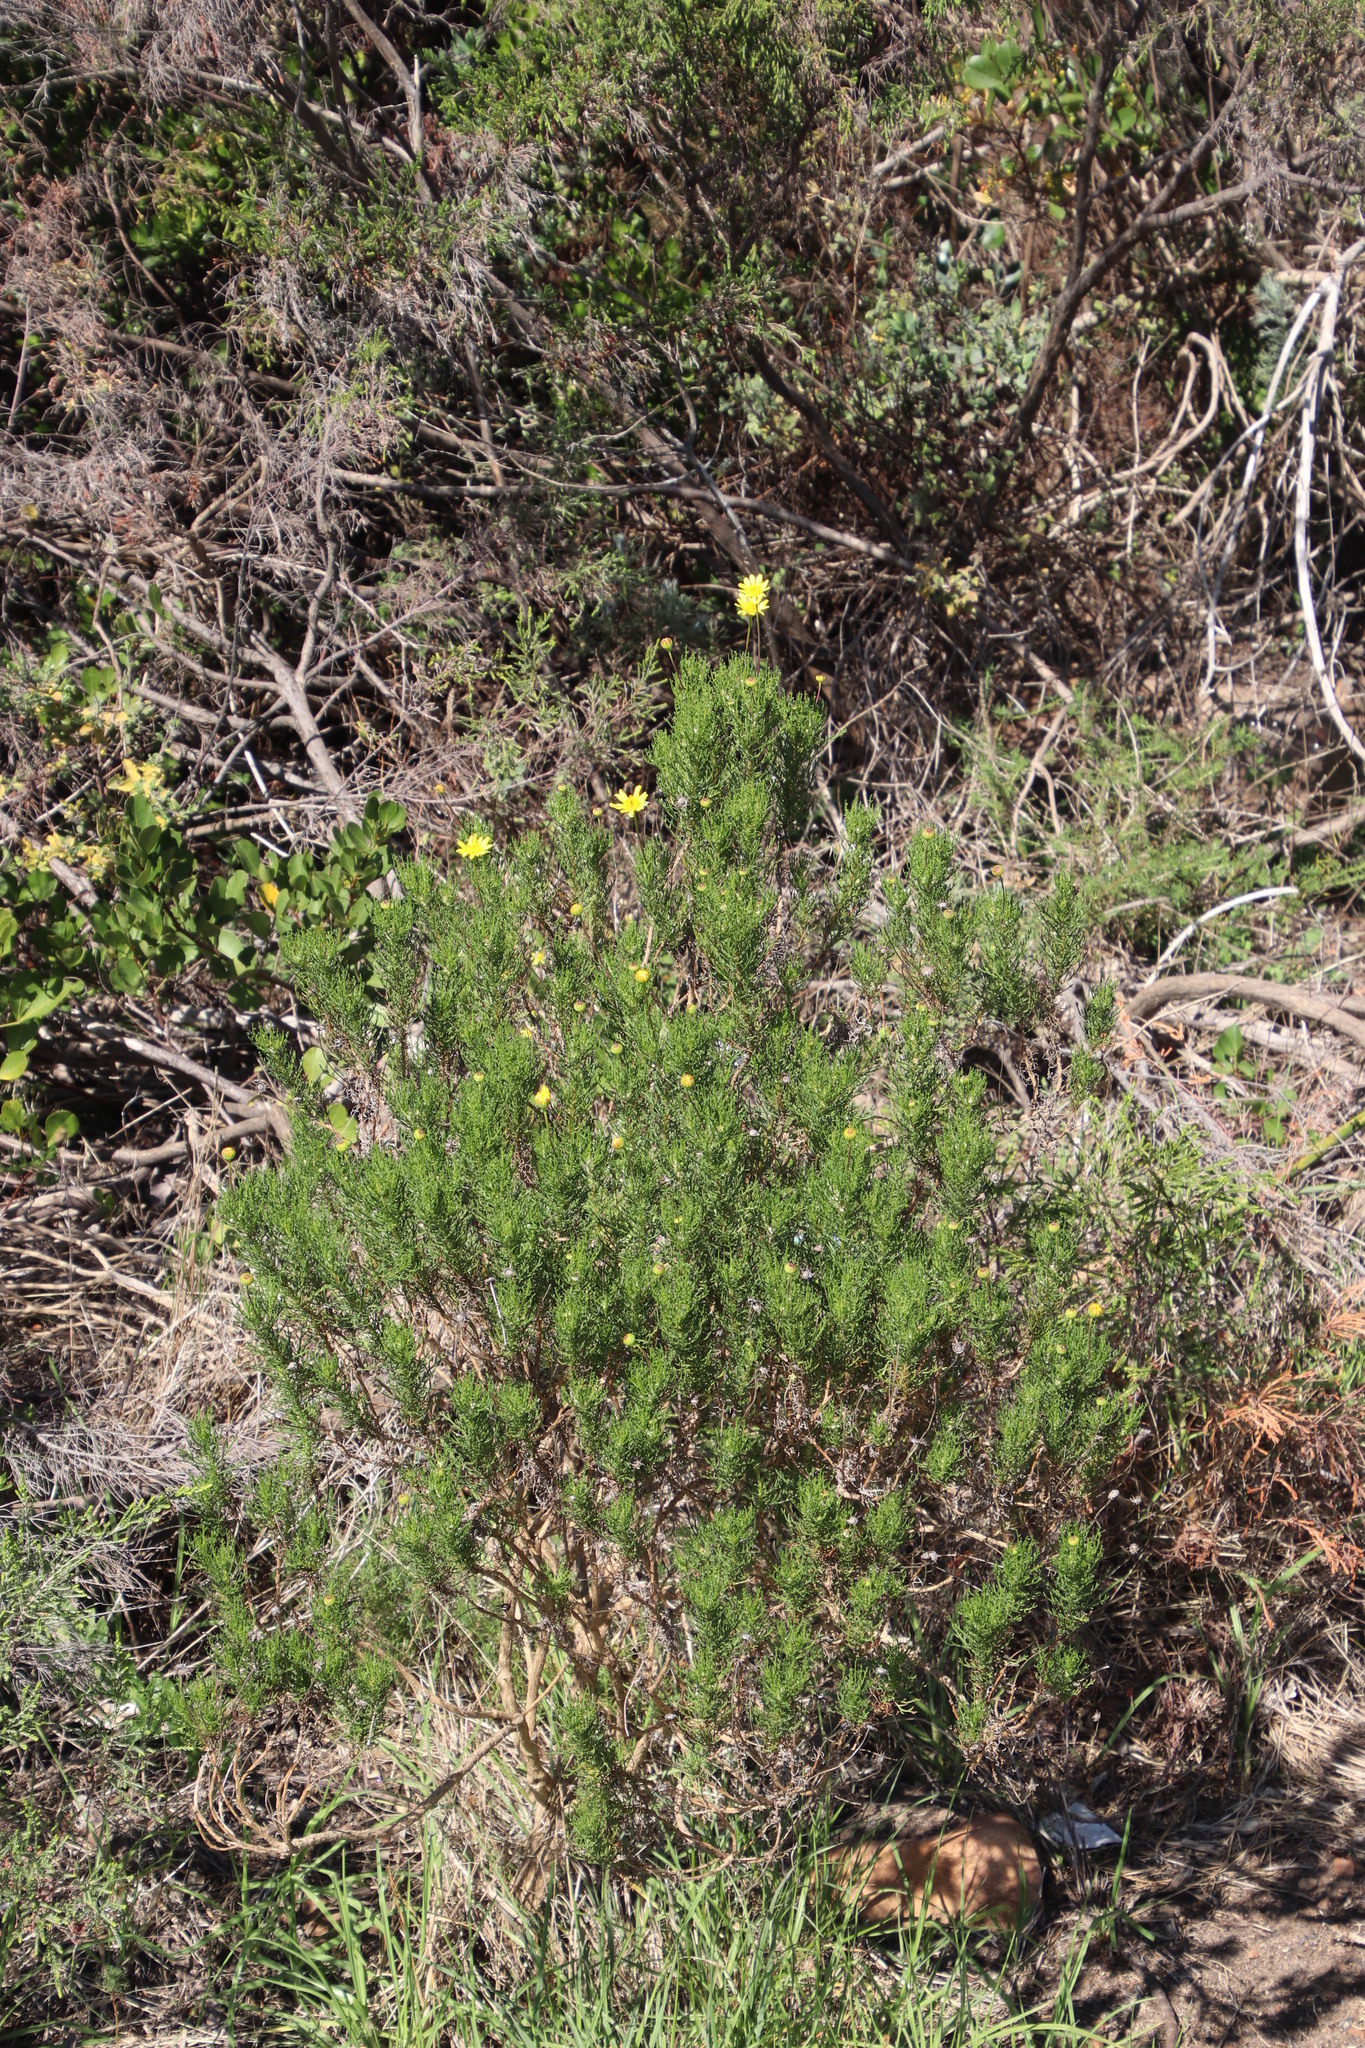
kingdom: Plantae
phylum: Tracheophyta
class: Magnoliopsida
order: Asterales
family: Asteraceae
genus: Euryops
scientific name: Euryops abrotanifolius
